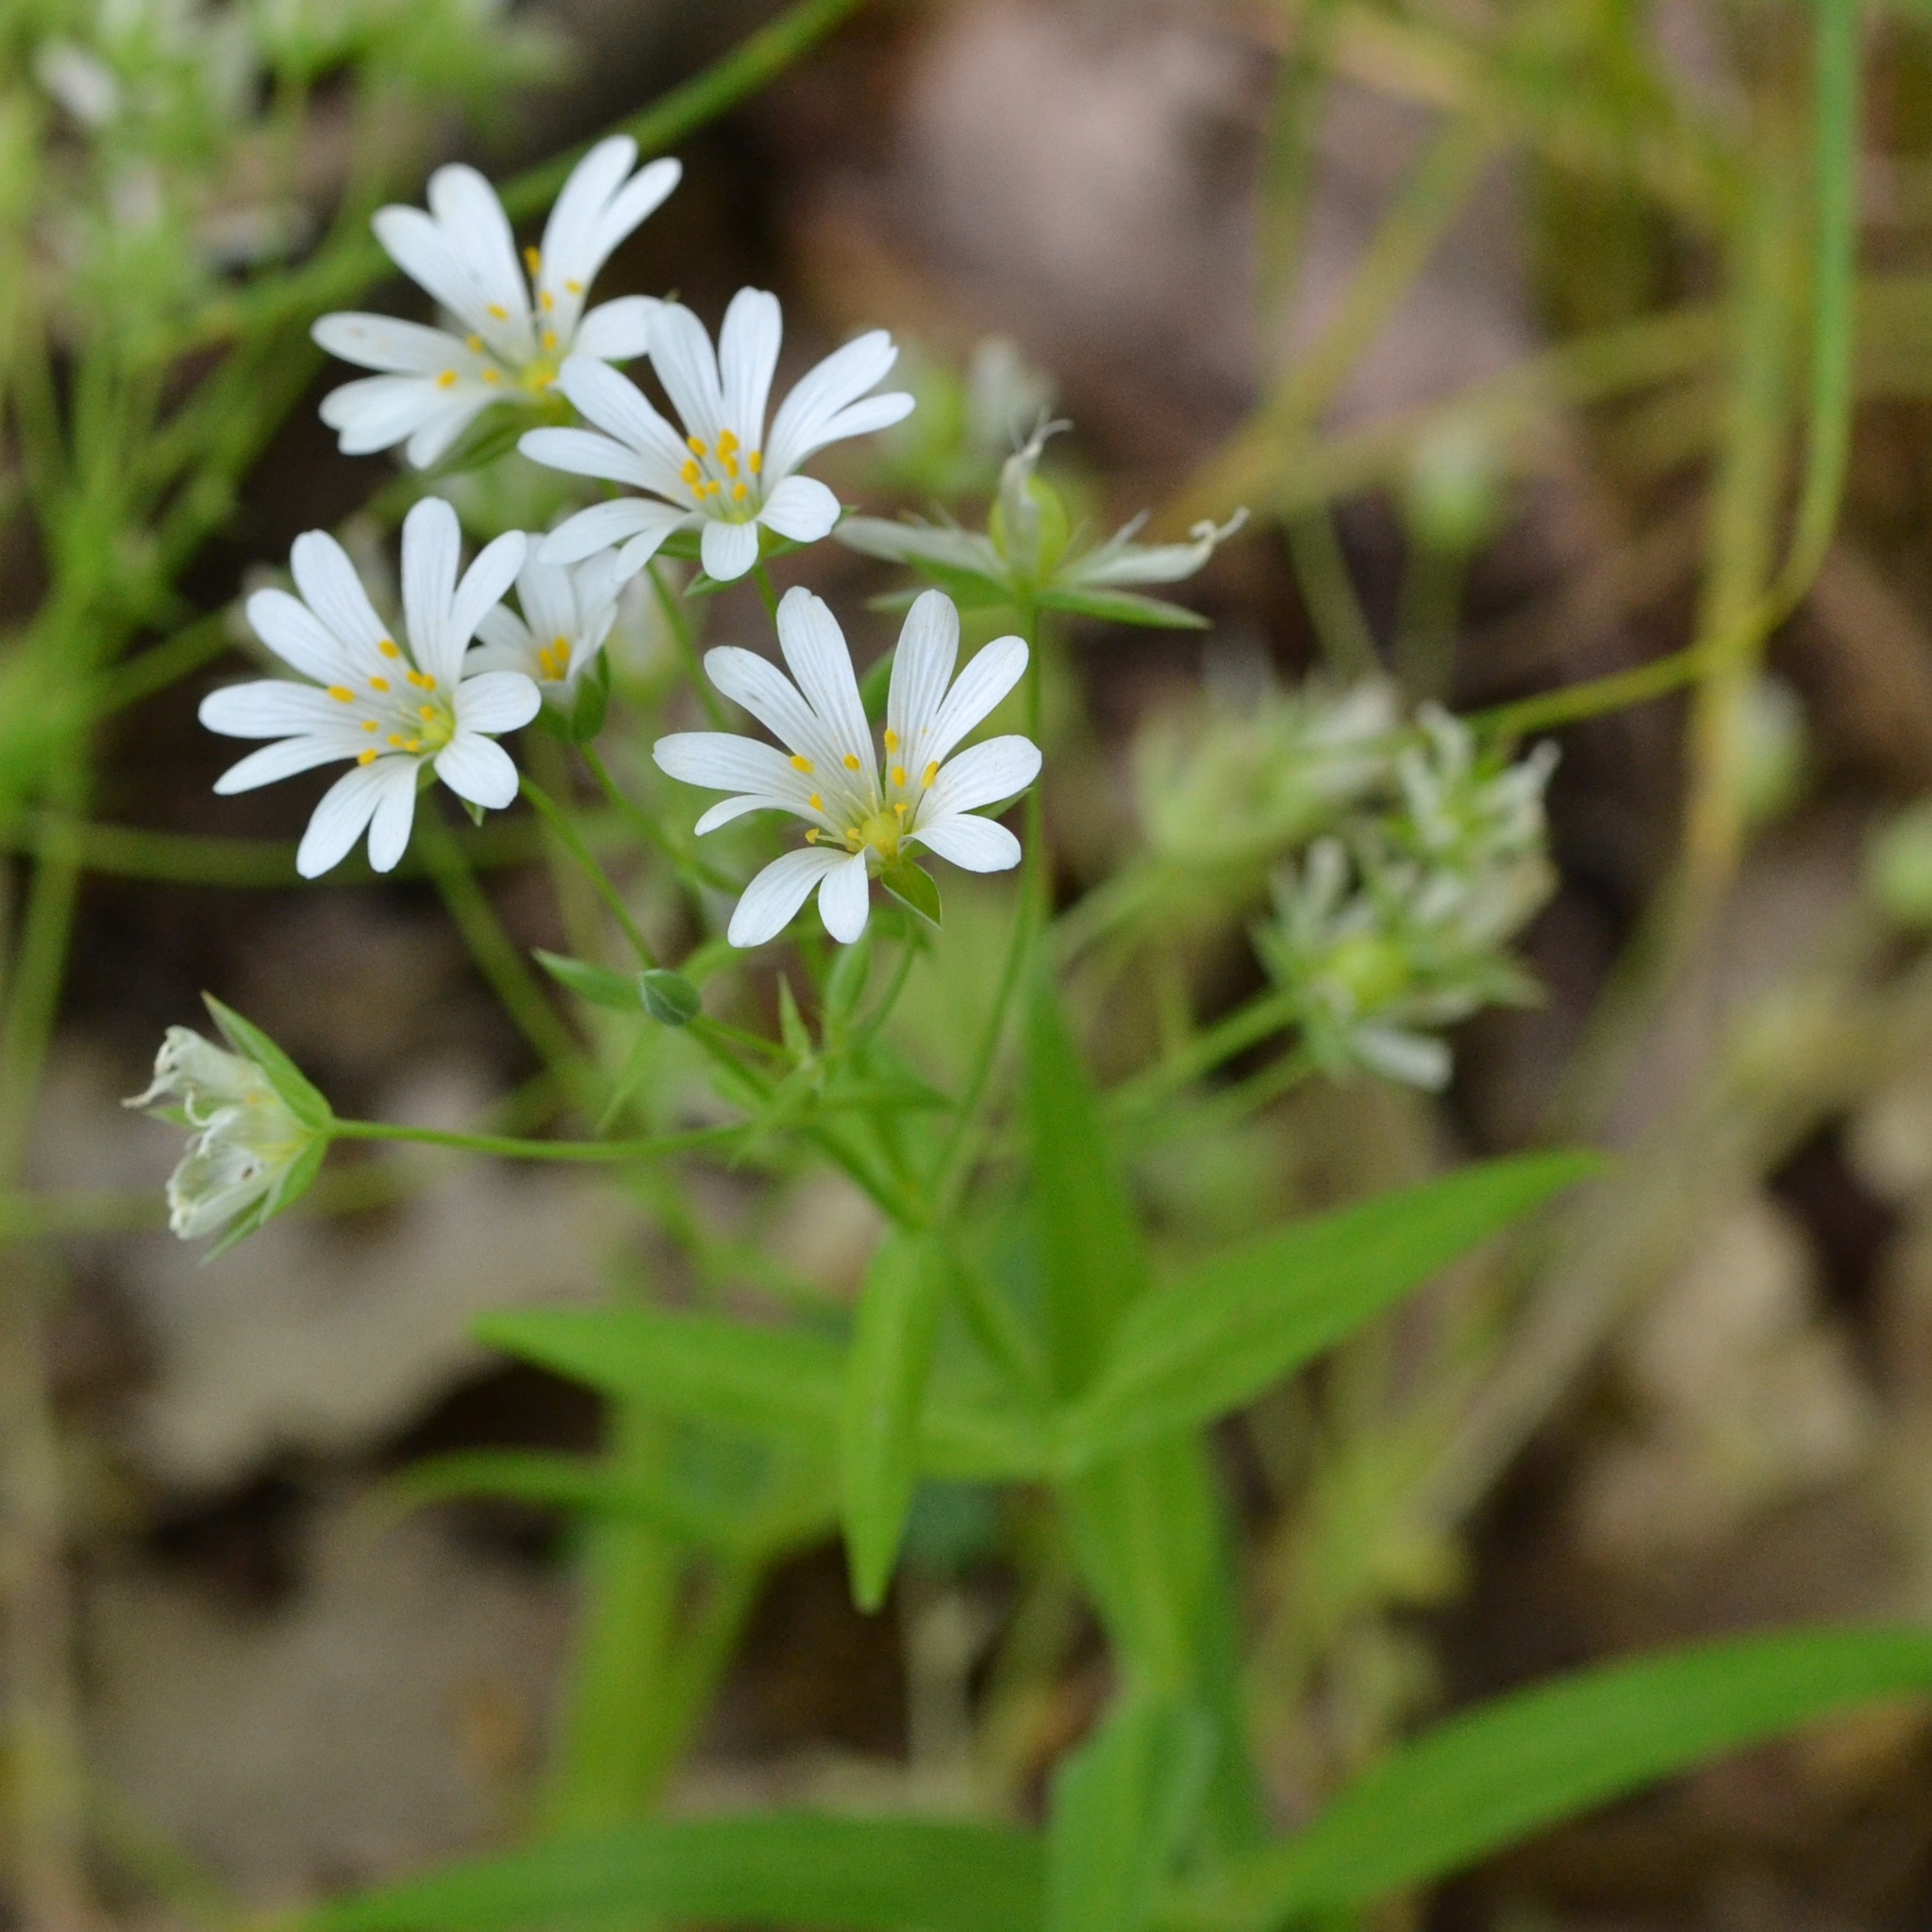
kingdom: Plantae
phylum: Tracheophyta
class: Magnoliopsida
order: Caryophyllales
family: Caryophyllaceae
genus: Rabelera
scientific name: Rabelera holostea
